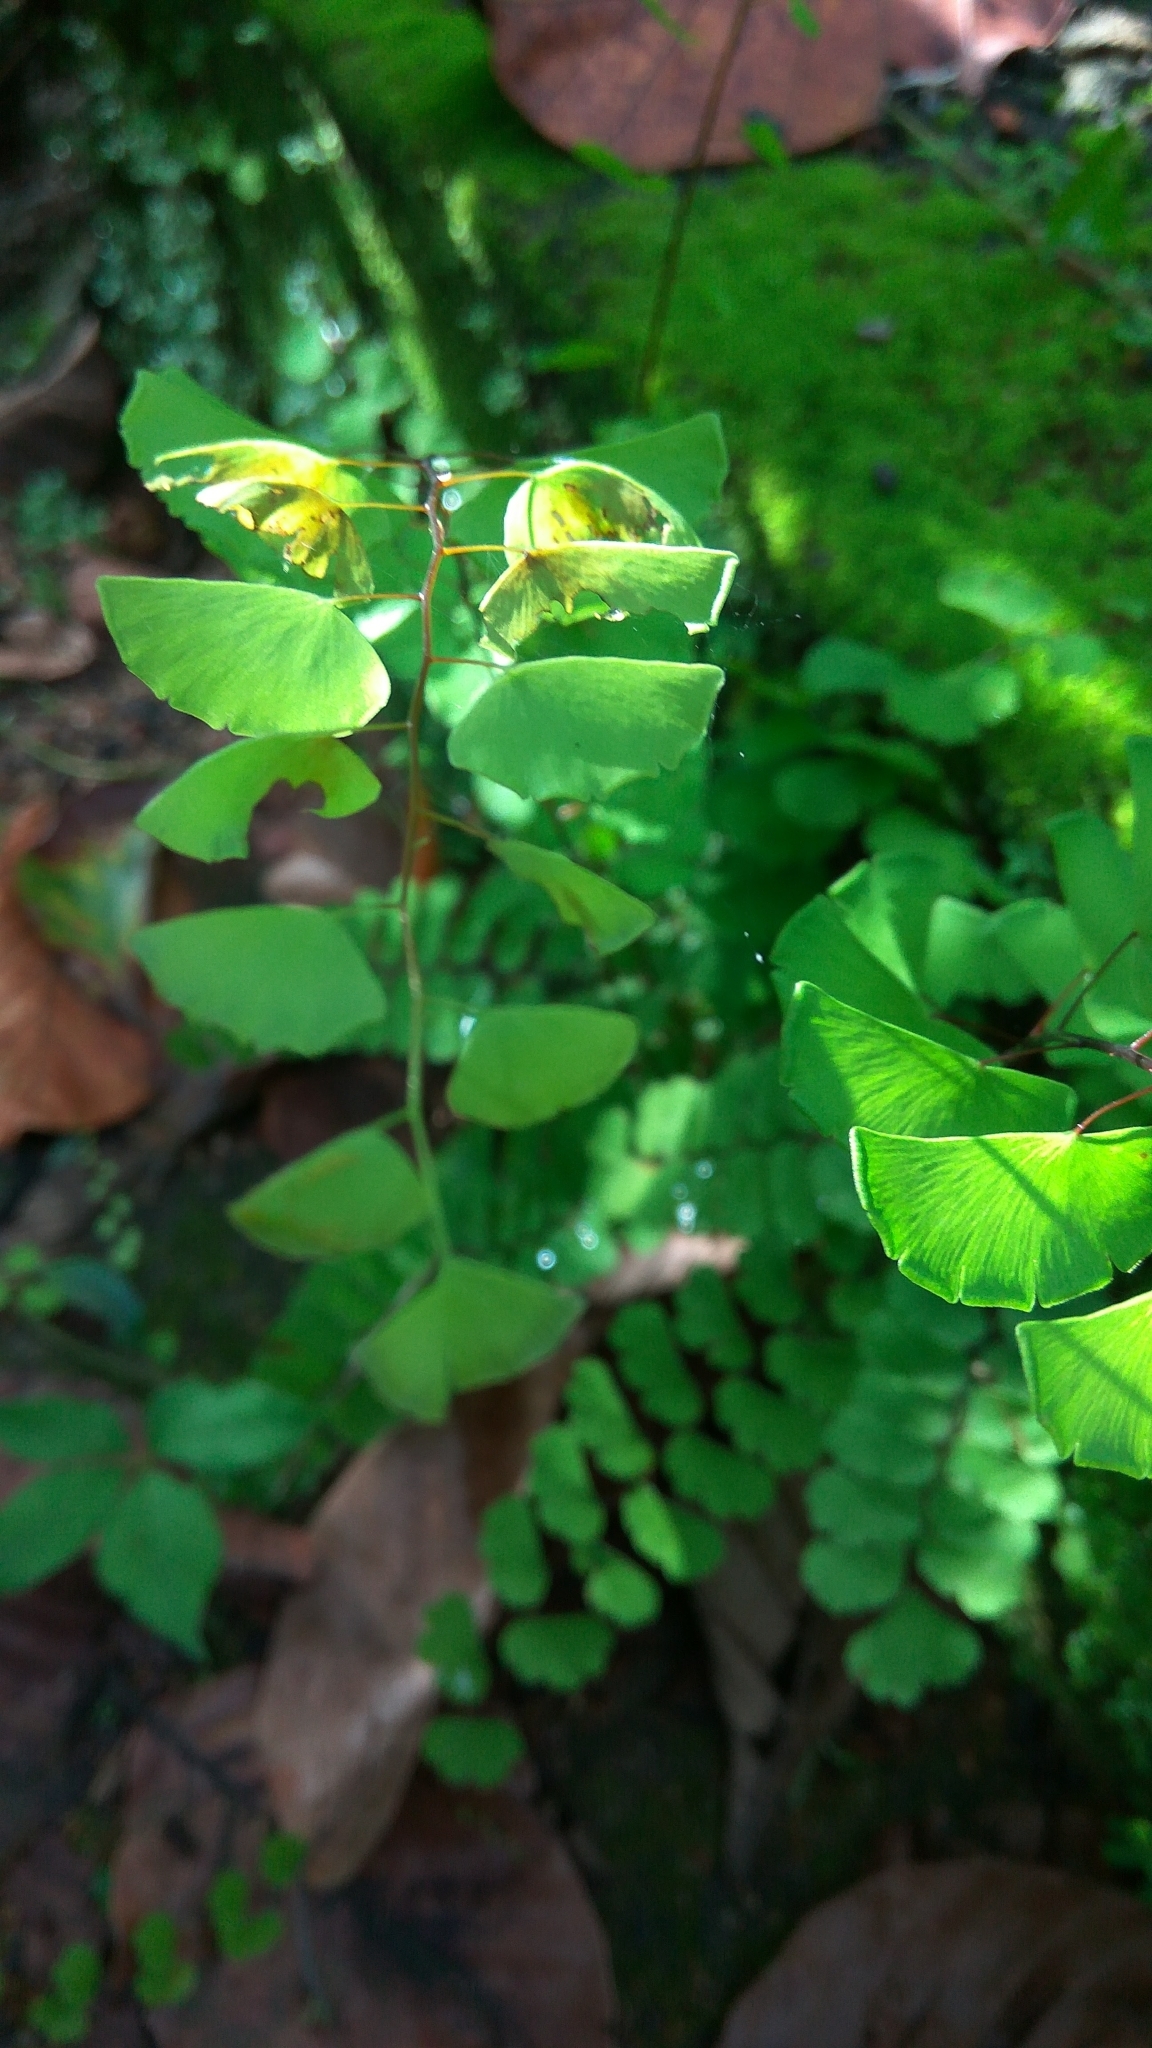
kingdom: Plantae
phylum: Tracheophyta
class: Polypodiopsida
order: Polypodiales
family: Pteridaceae
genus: Adiantum
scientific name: Adiantum philippense
